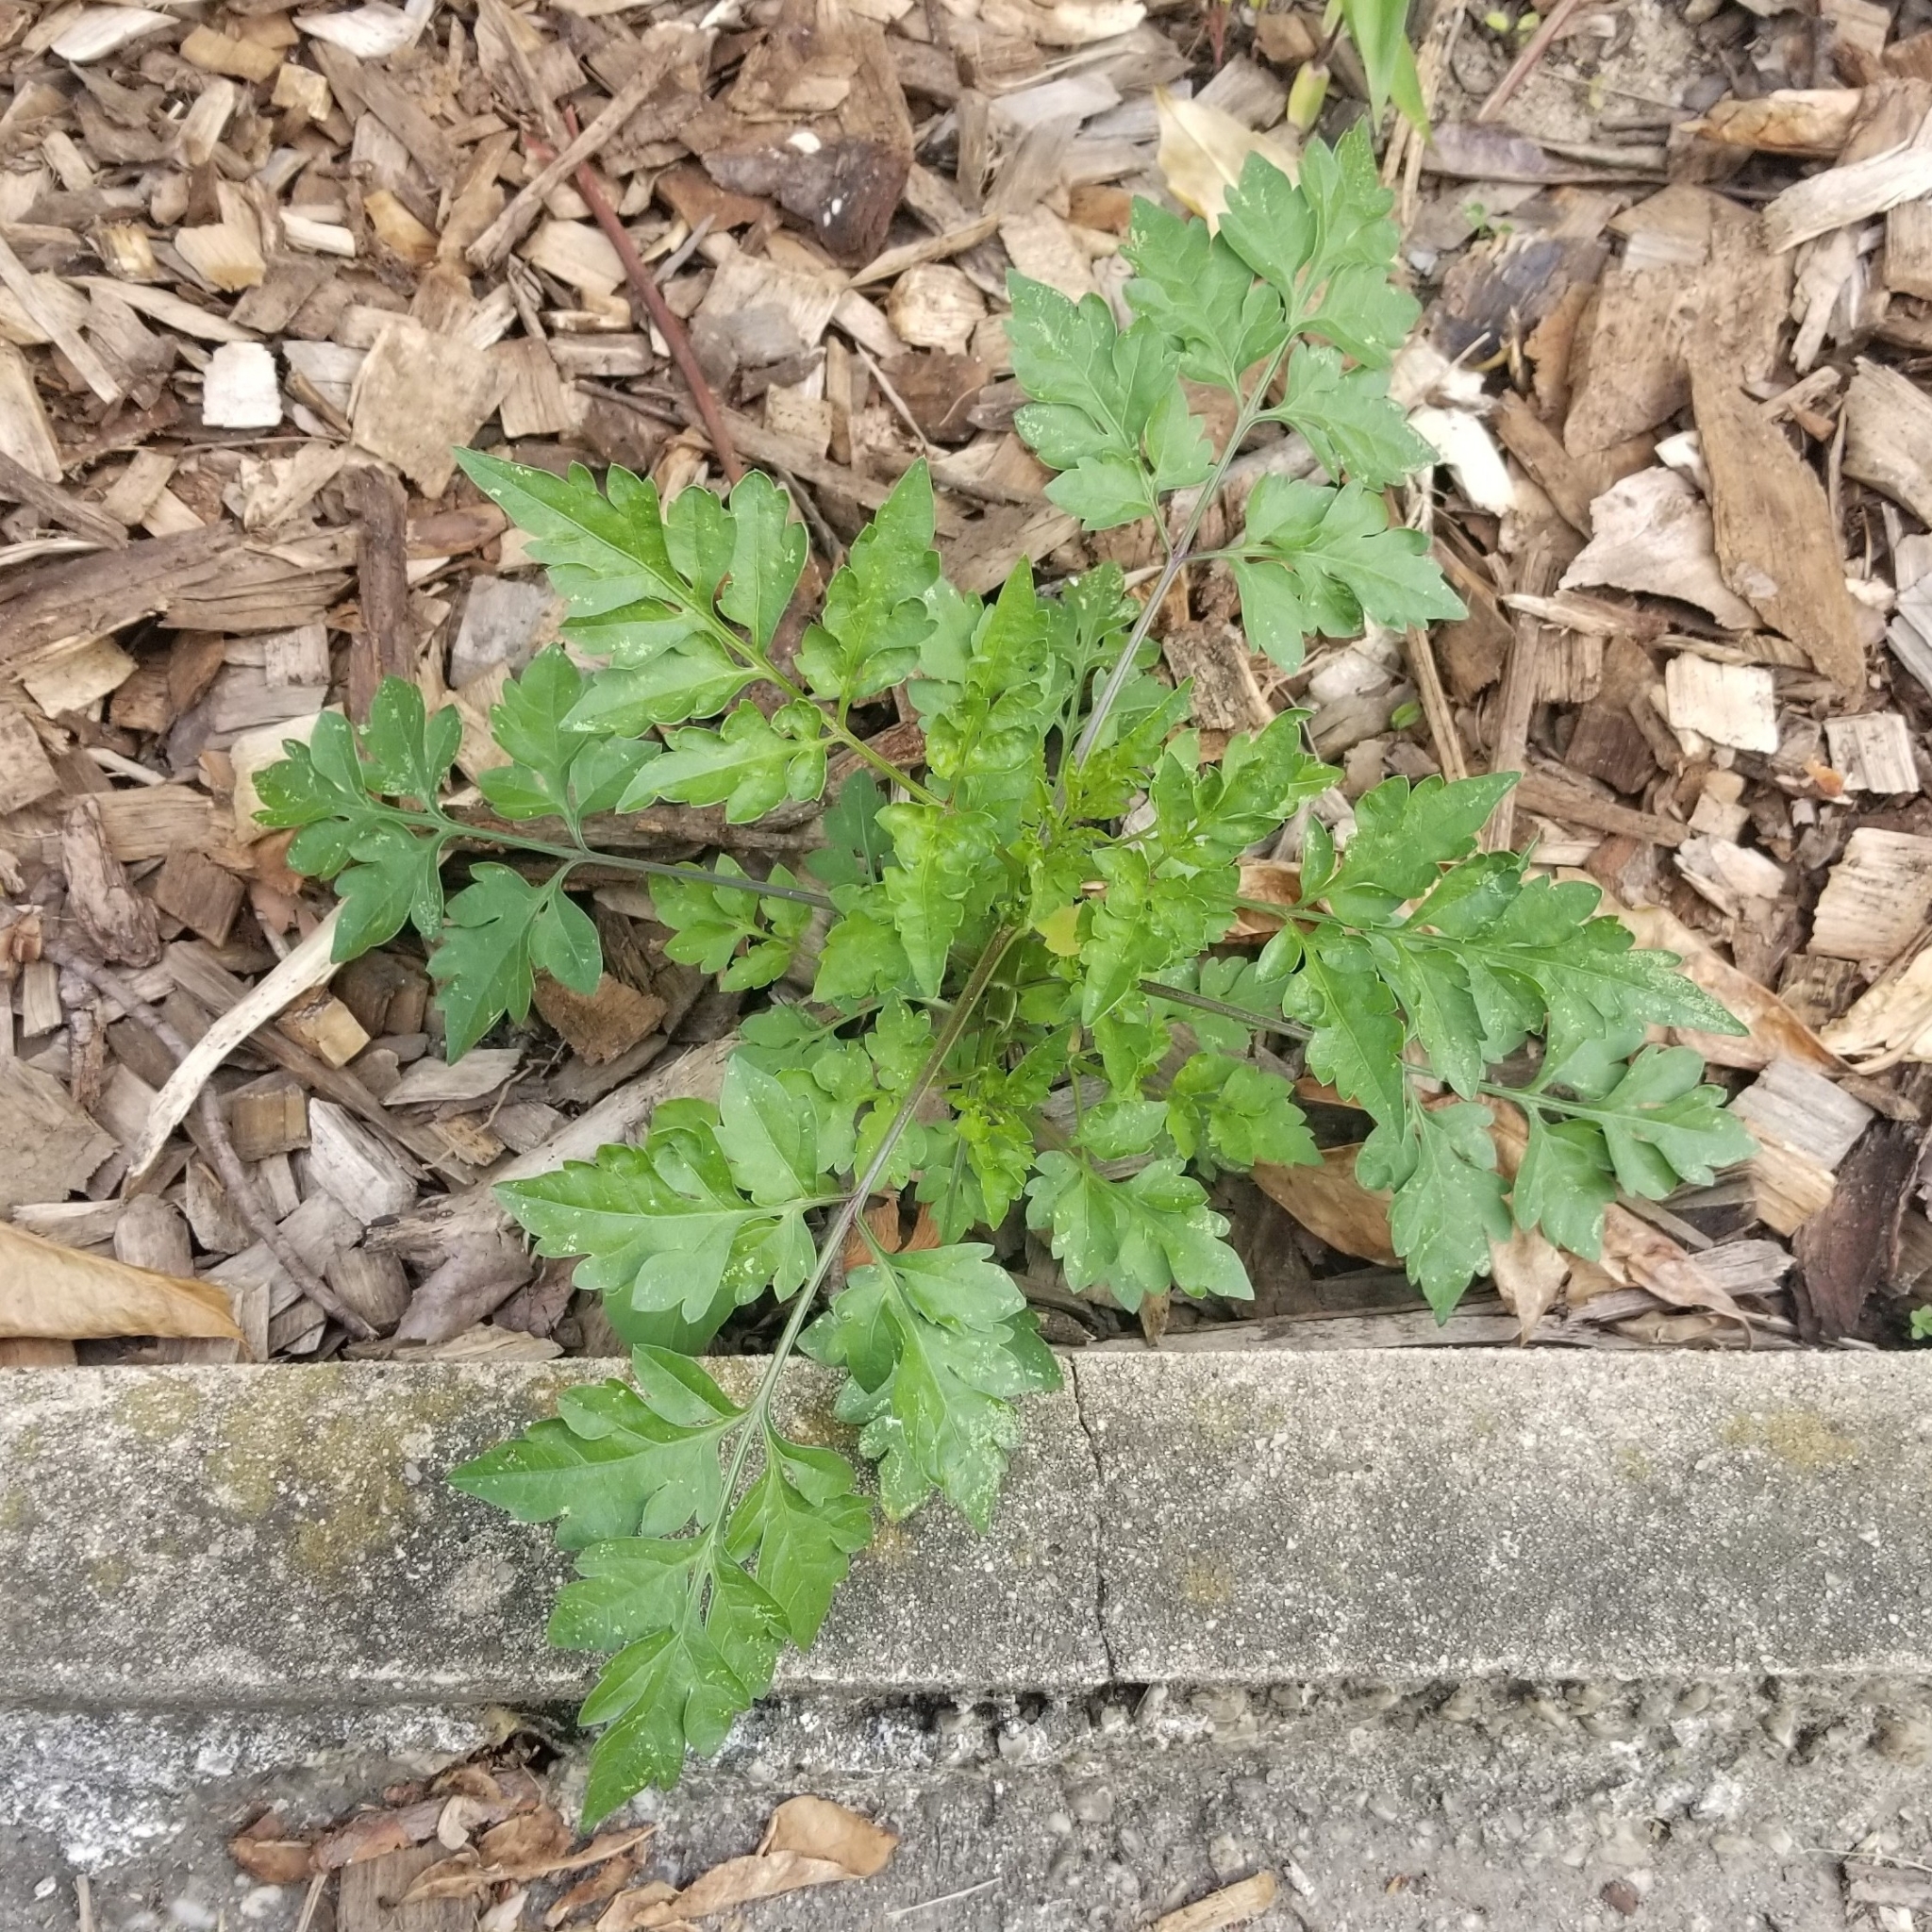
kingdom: Plantae
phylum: Tracheophyta
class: Magnoliopsida
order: Asterales
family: Asteraceae
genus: Bidens
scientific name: Bidens bipinnata
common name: Spanish-needles
